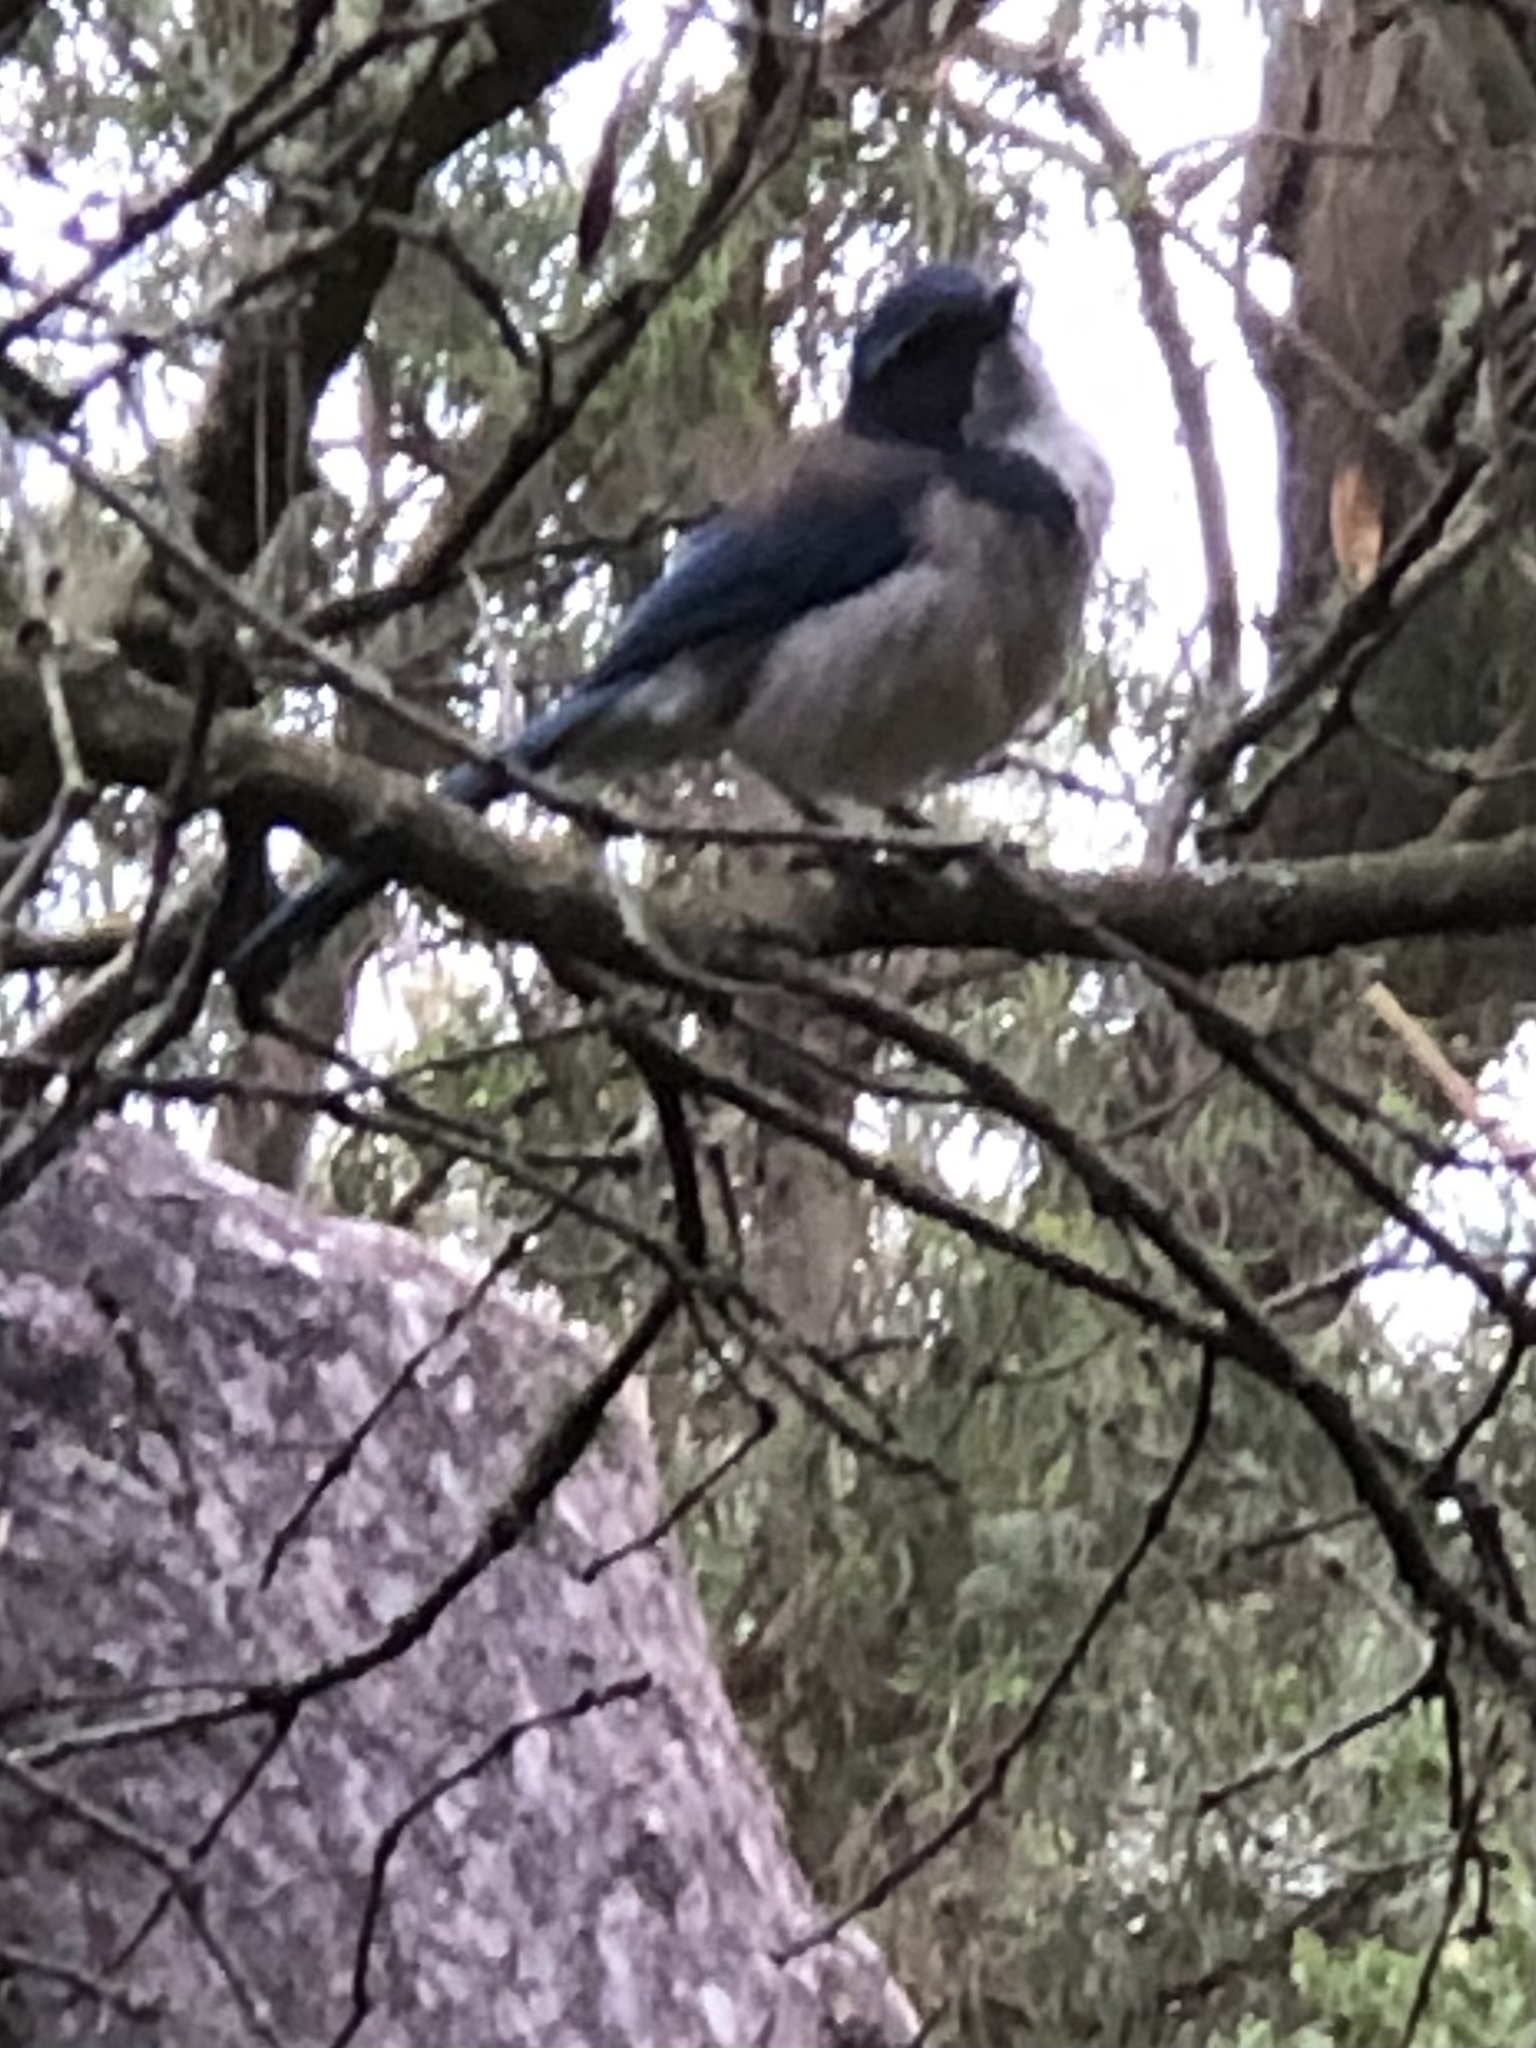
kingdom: Animalia
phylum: Chordata
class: Aves
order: Passeriformes
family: Corvidae
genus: Aphelocoma
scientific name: Aphelocoma californica
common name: California scrub-jay
